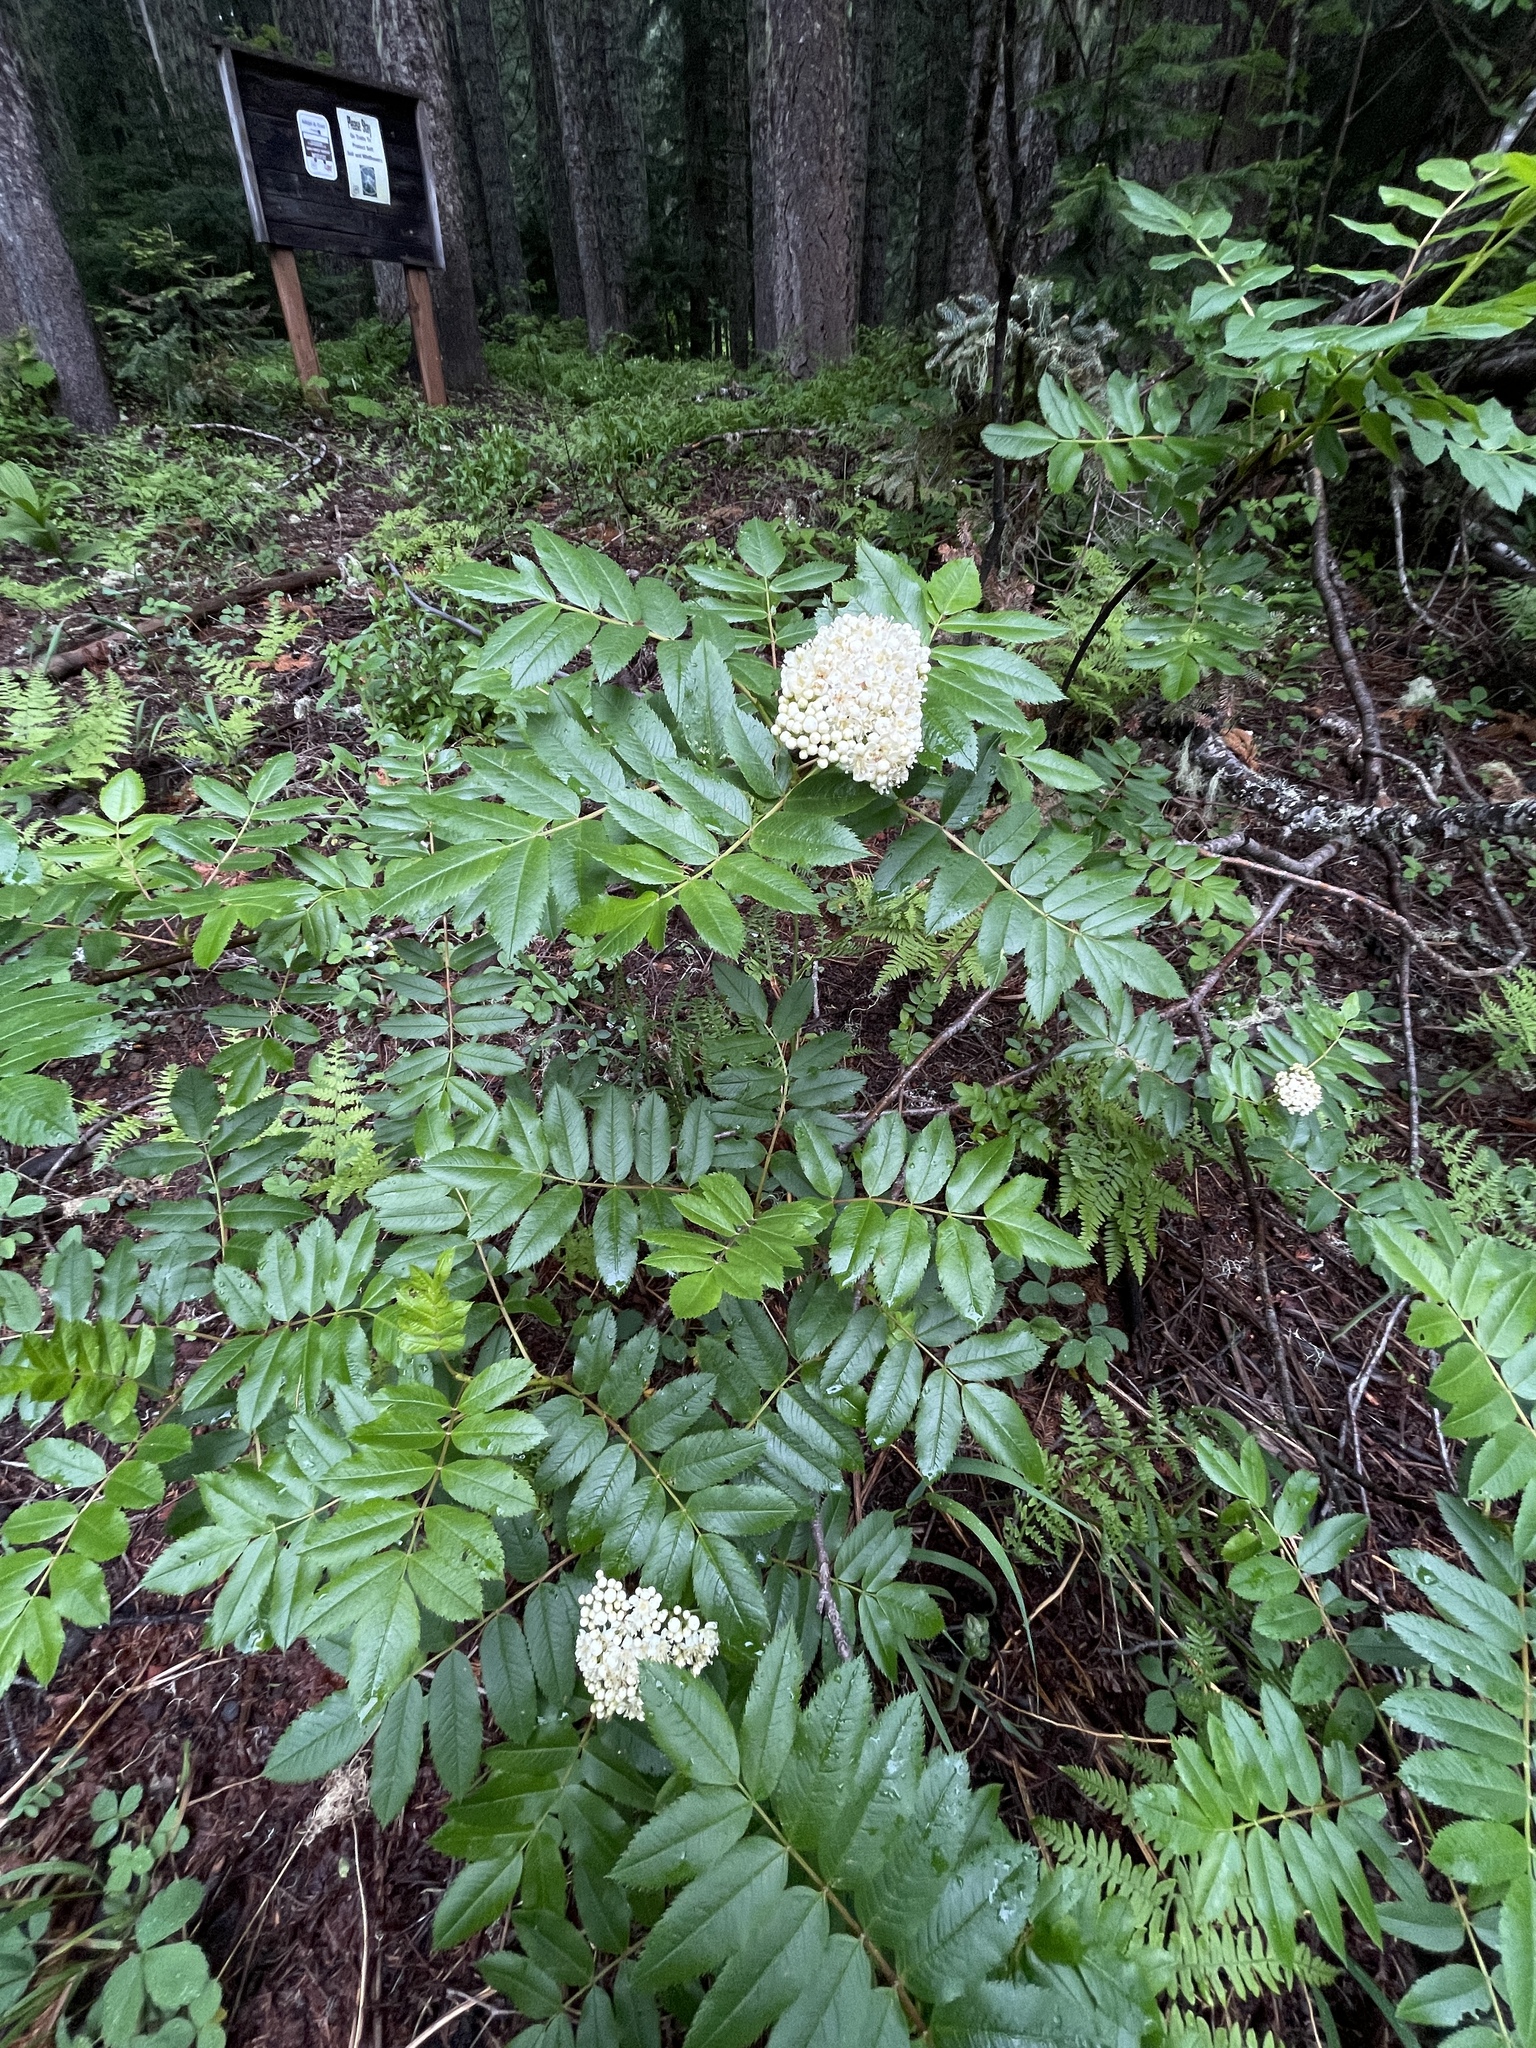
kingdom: Plantae
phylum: Tracheophyta
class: Magnoliopsida
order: Rosales
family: Rosaceae
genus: Sorbus
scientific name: Sorbus scopulina
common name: Greene's mountain-ash
